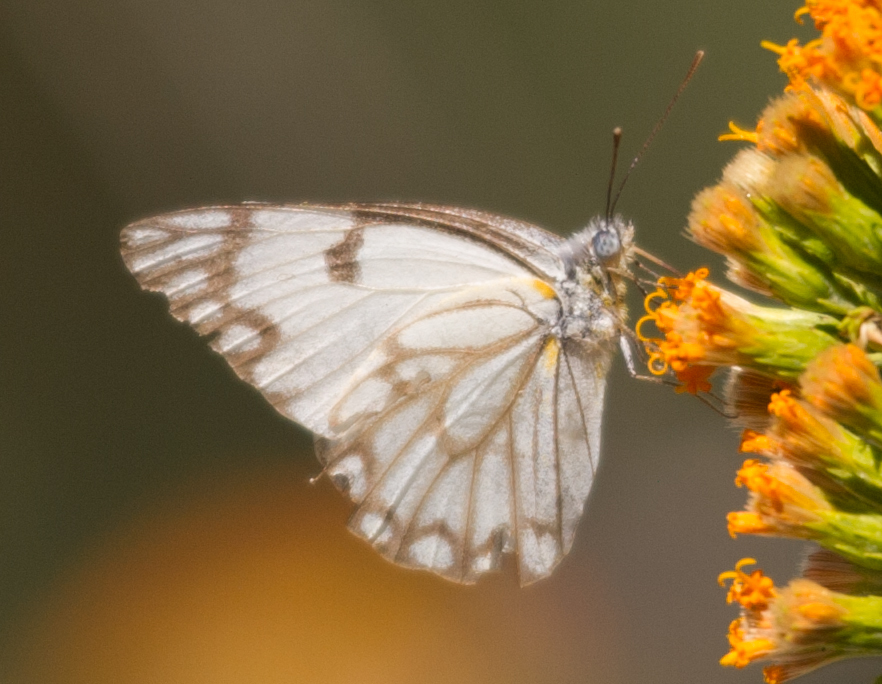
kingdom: Animalia
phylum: Arthropoda
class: Insecta
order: Lepidoptera
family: Pieridae
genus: Belenois
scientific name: Belenois aurota
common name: Brown-veined white
